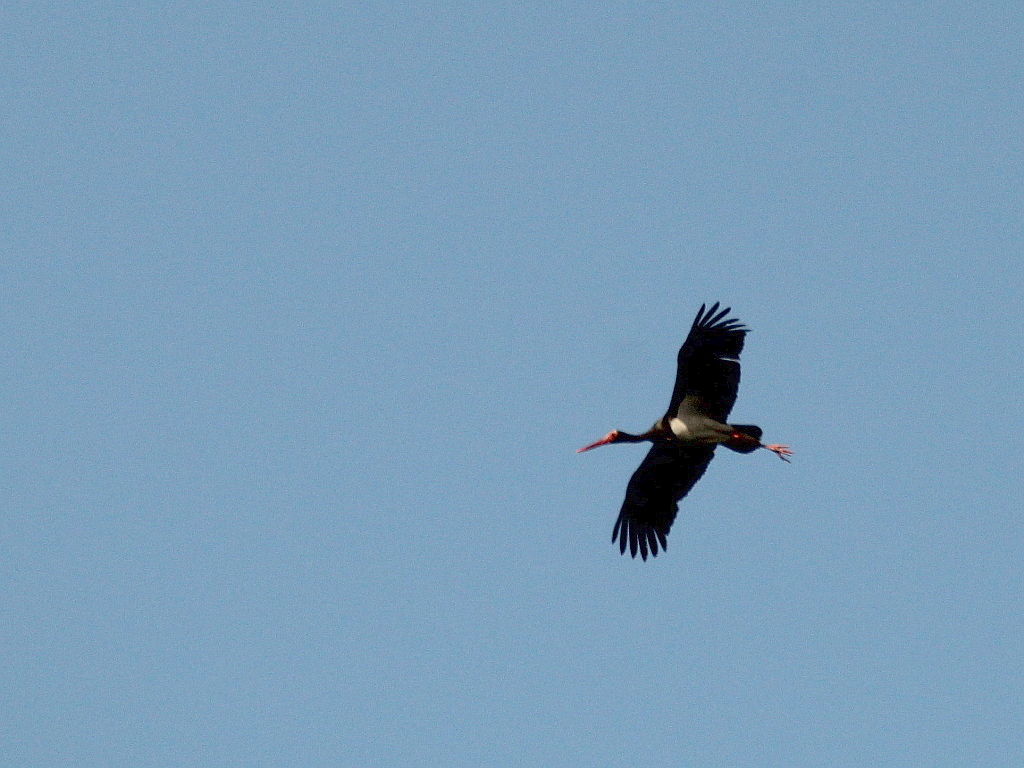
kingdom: Animalia
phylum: Chordata
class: Aves
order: Ciconiiformes
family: Ciconiidae
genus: Ciconia
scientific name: Ciconia nigra
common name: Black stork
